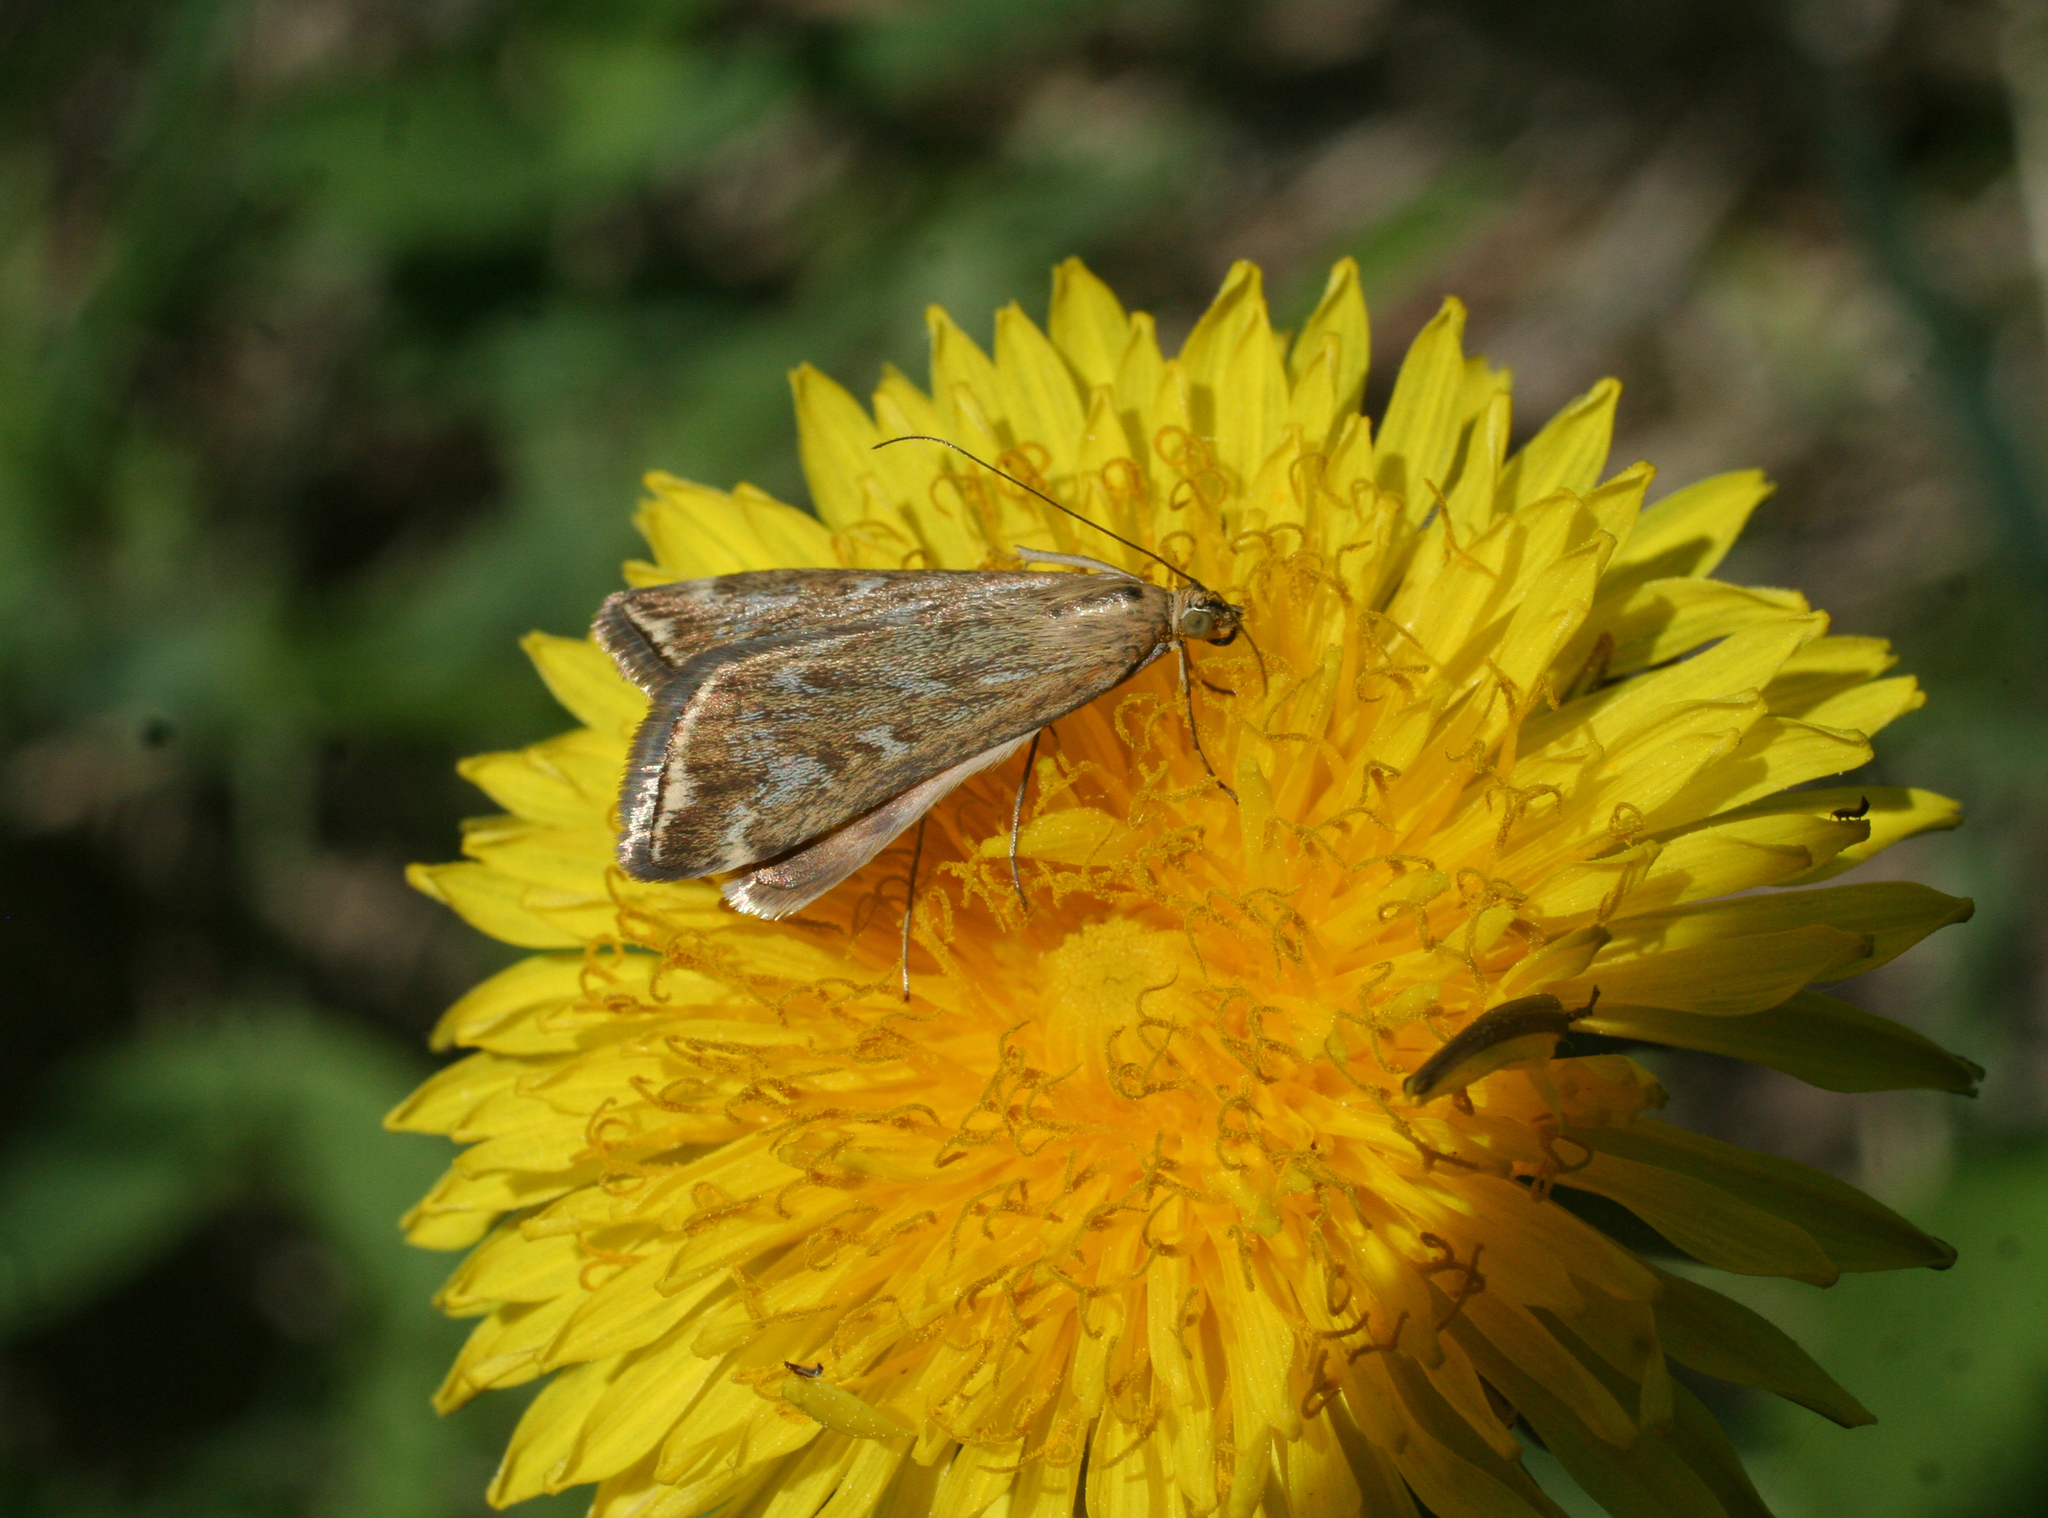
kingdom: Animalia
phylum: Arthropoda
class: Insecta
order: Lepidoptera
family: Crambidae
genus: Loxostege
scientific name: Loxostege sticticalis
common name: Crambid moth
